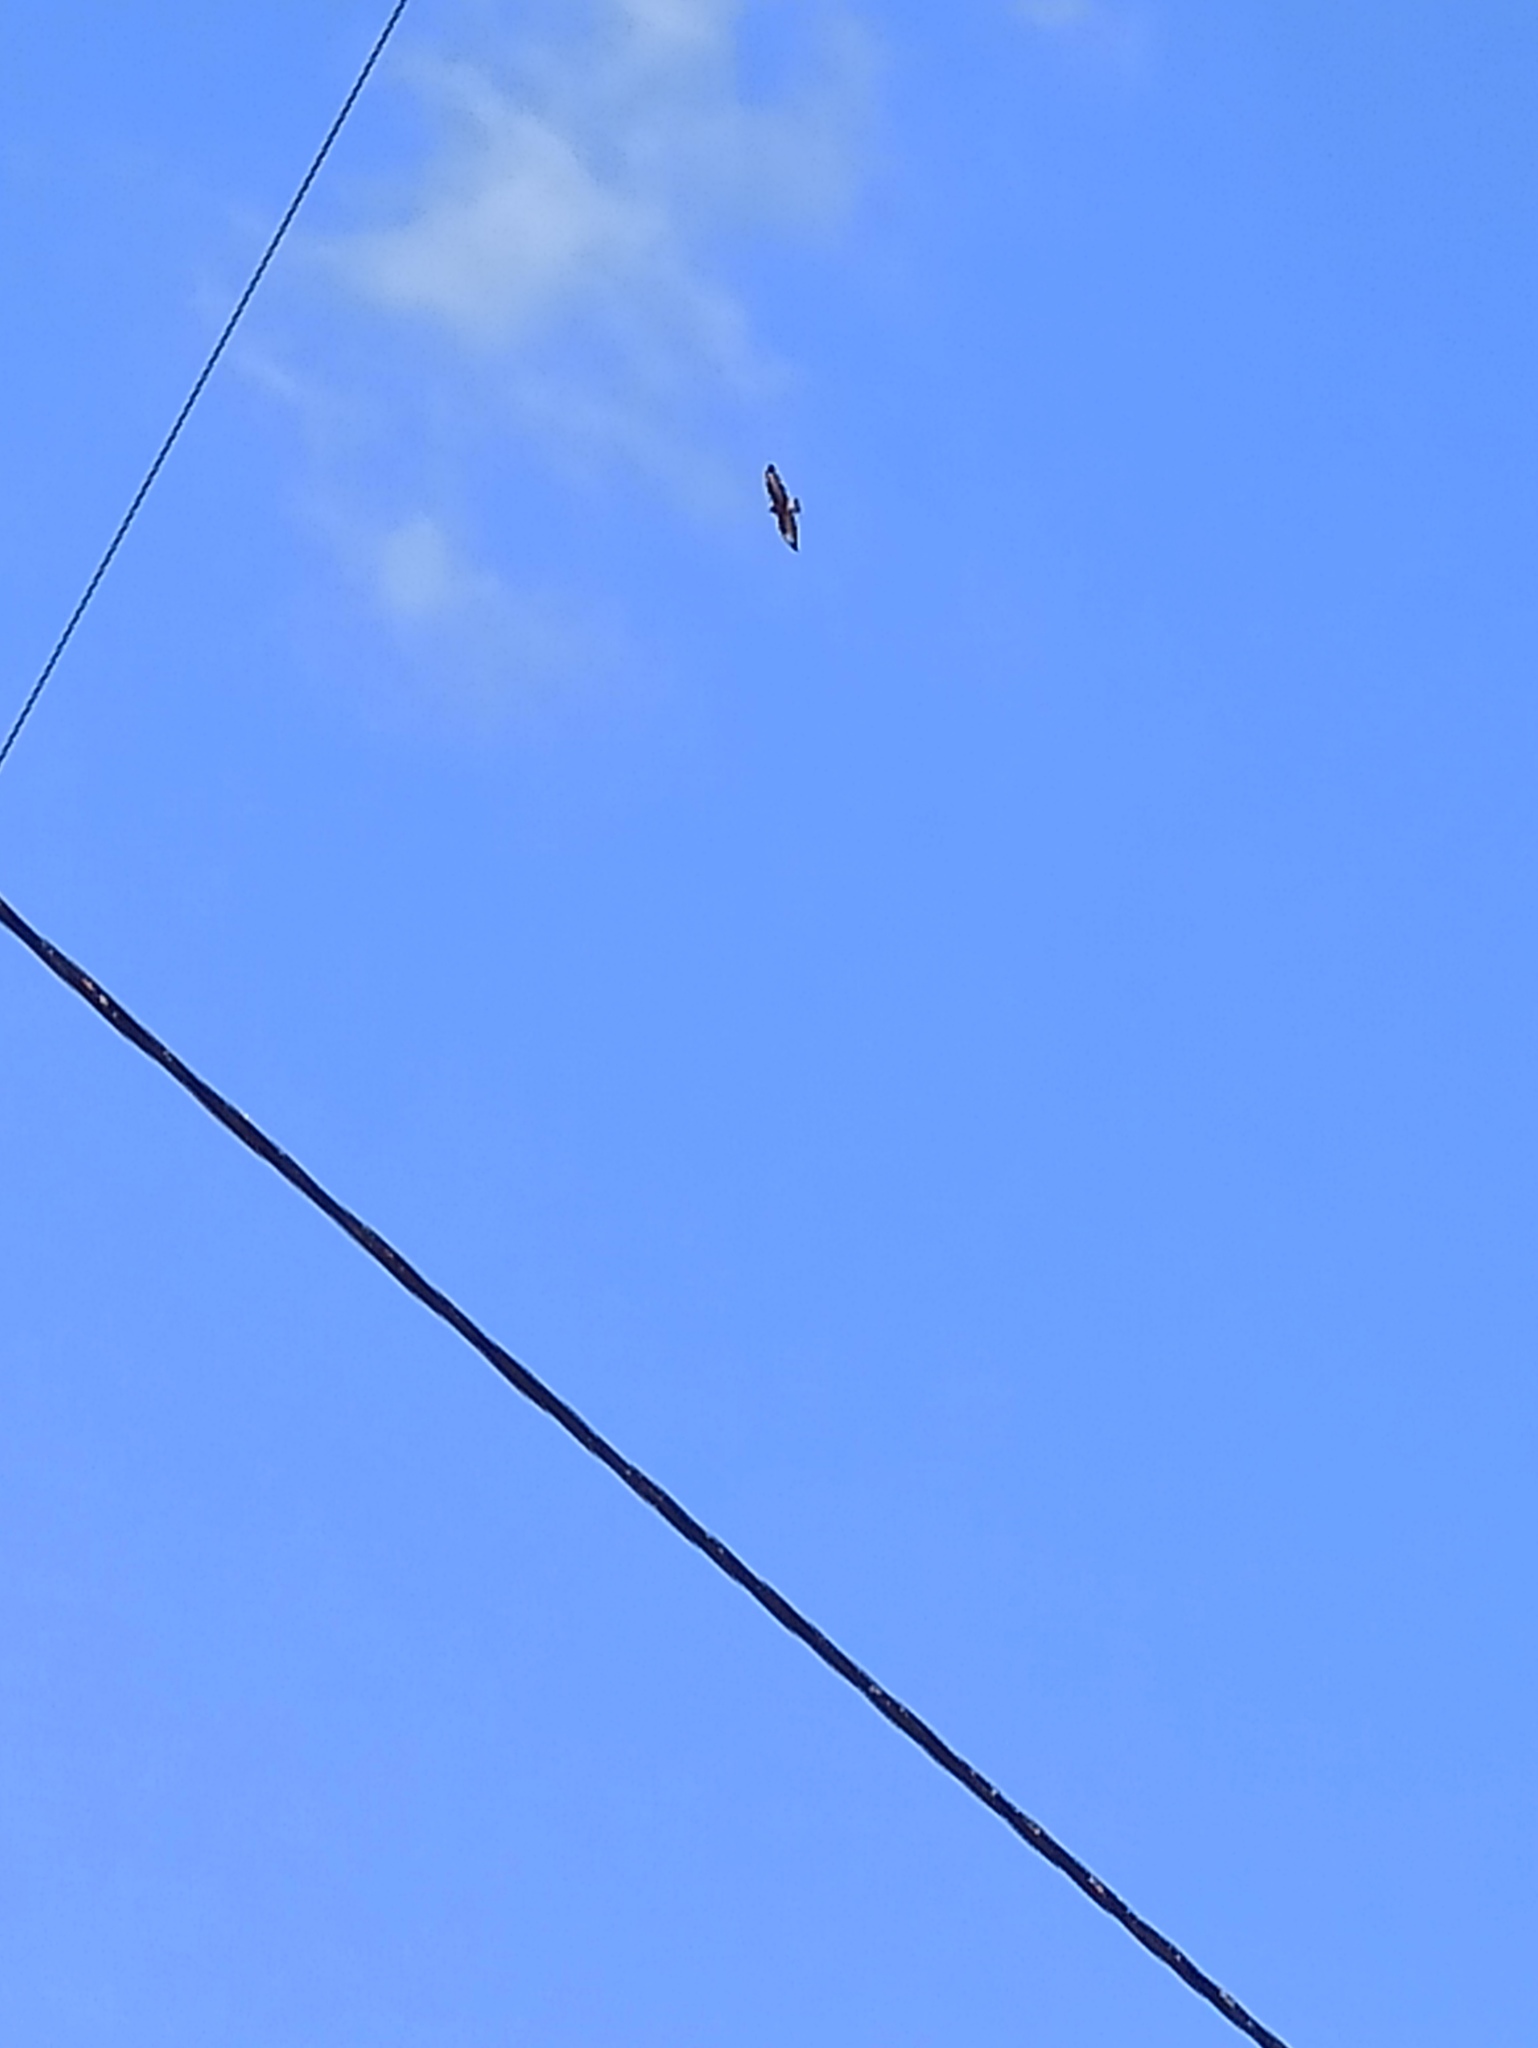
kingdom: Animalia
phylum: Chordata
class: Aves
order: Accipitriformes
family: Accipitridae
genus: Buteo
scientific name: Buteo buteo
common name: Common buzzard
